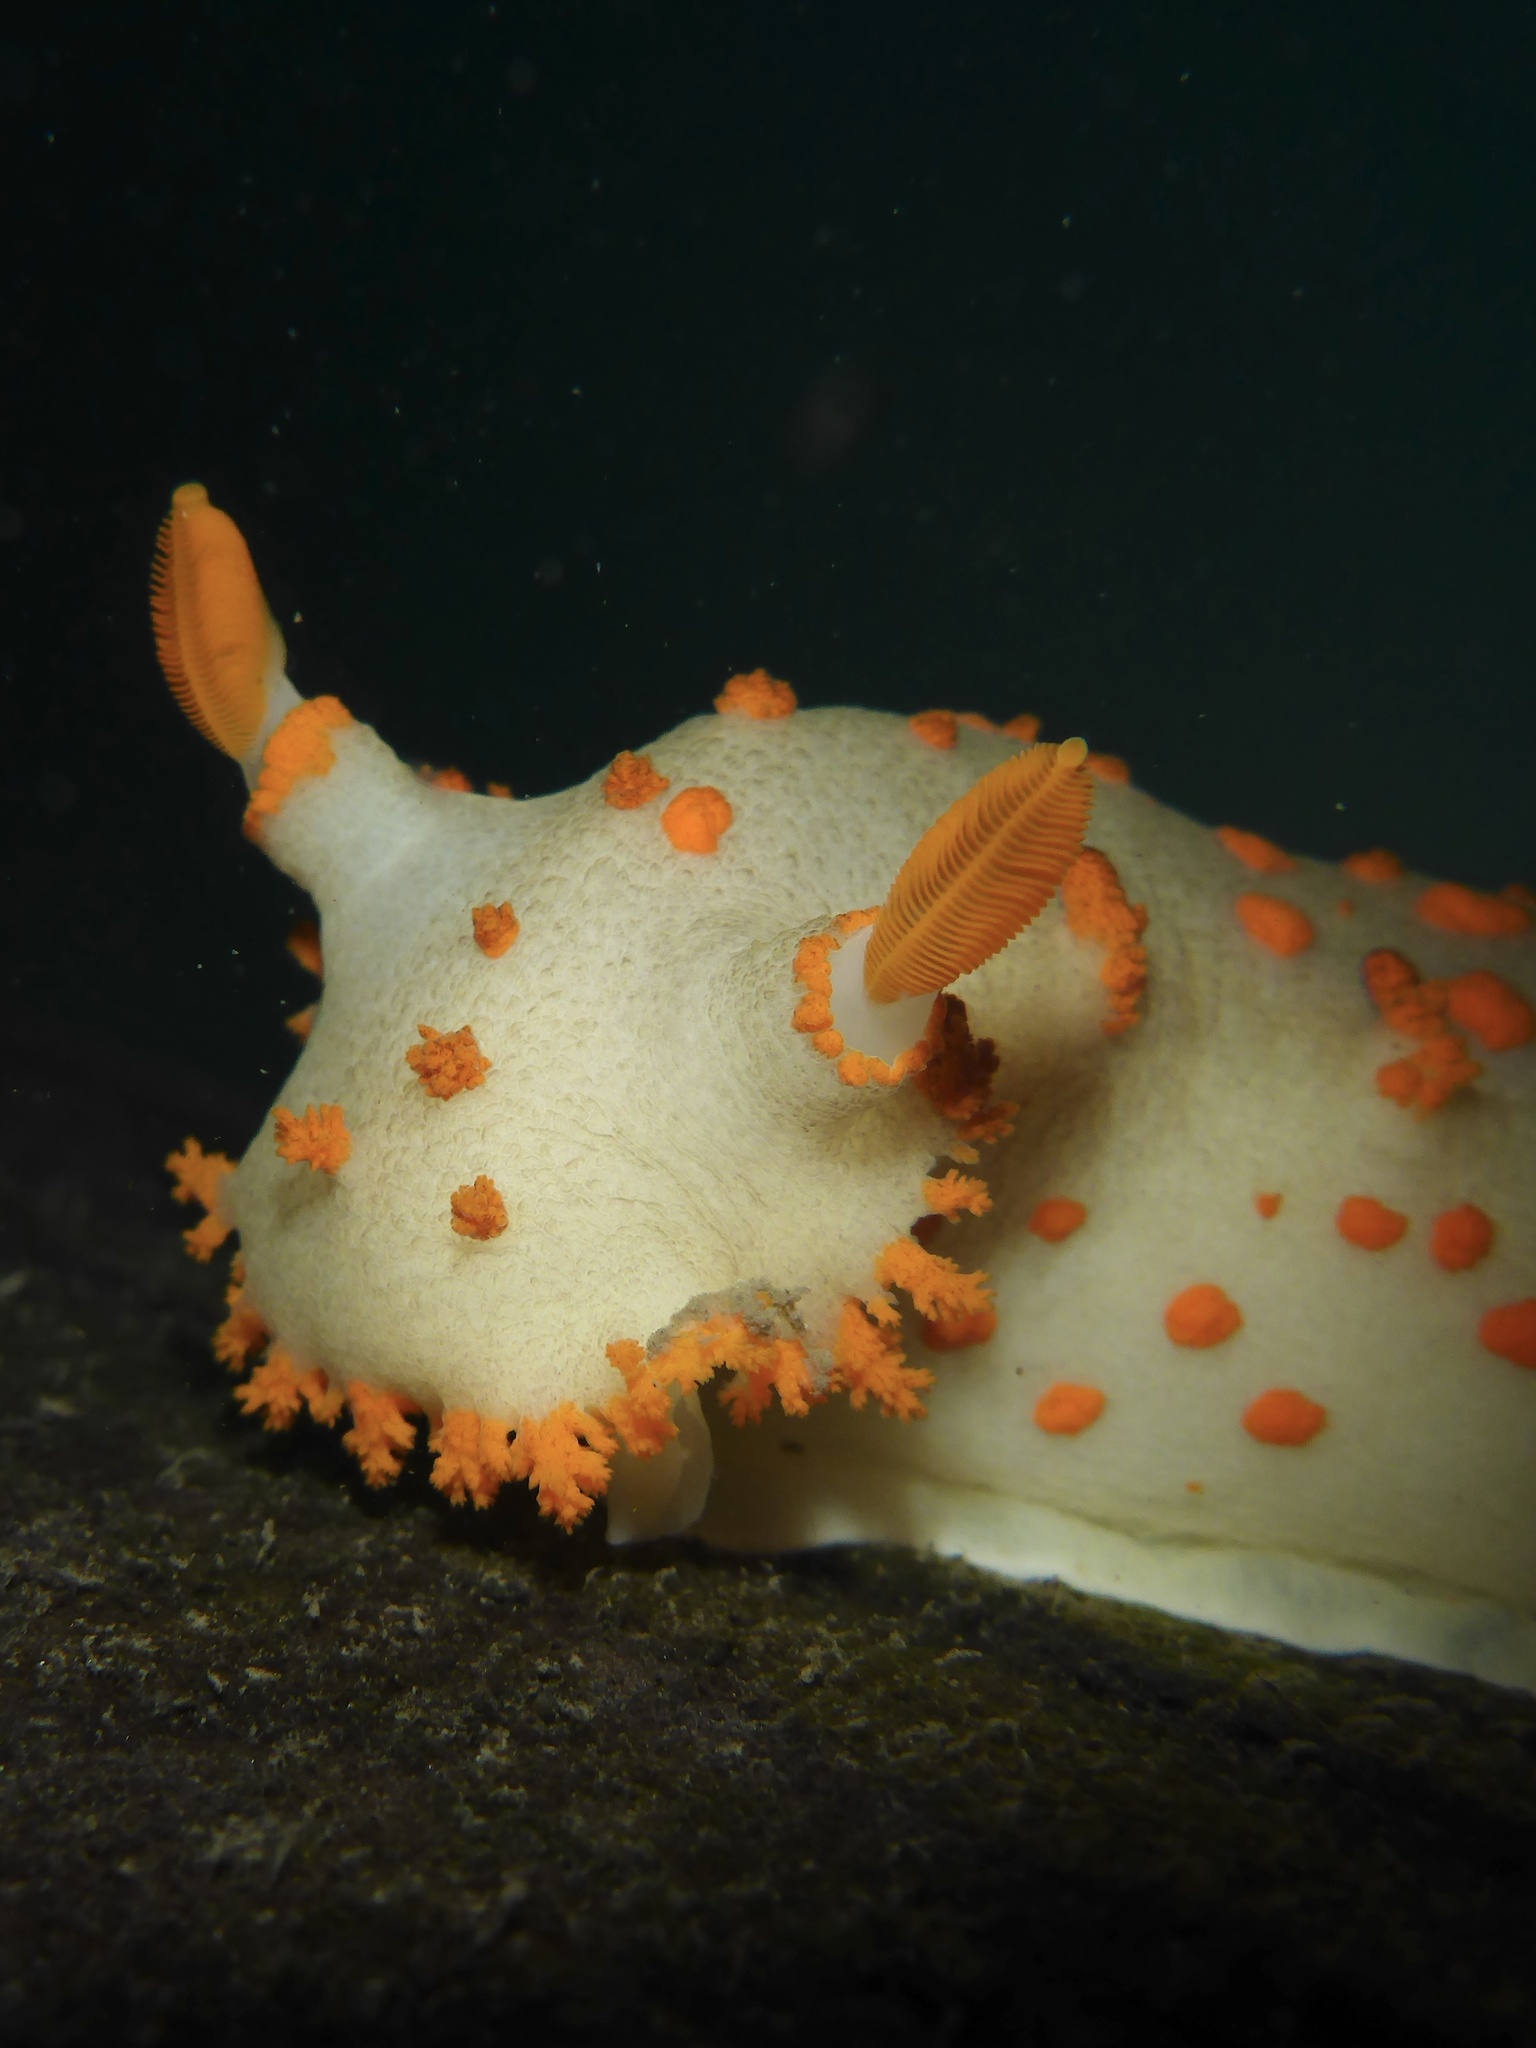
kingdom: Animalia
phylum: Mollusca
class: Gastropoda
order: Nudibranchia
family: Polyceridae
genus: Triopha
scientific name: Triopha modesta
